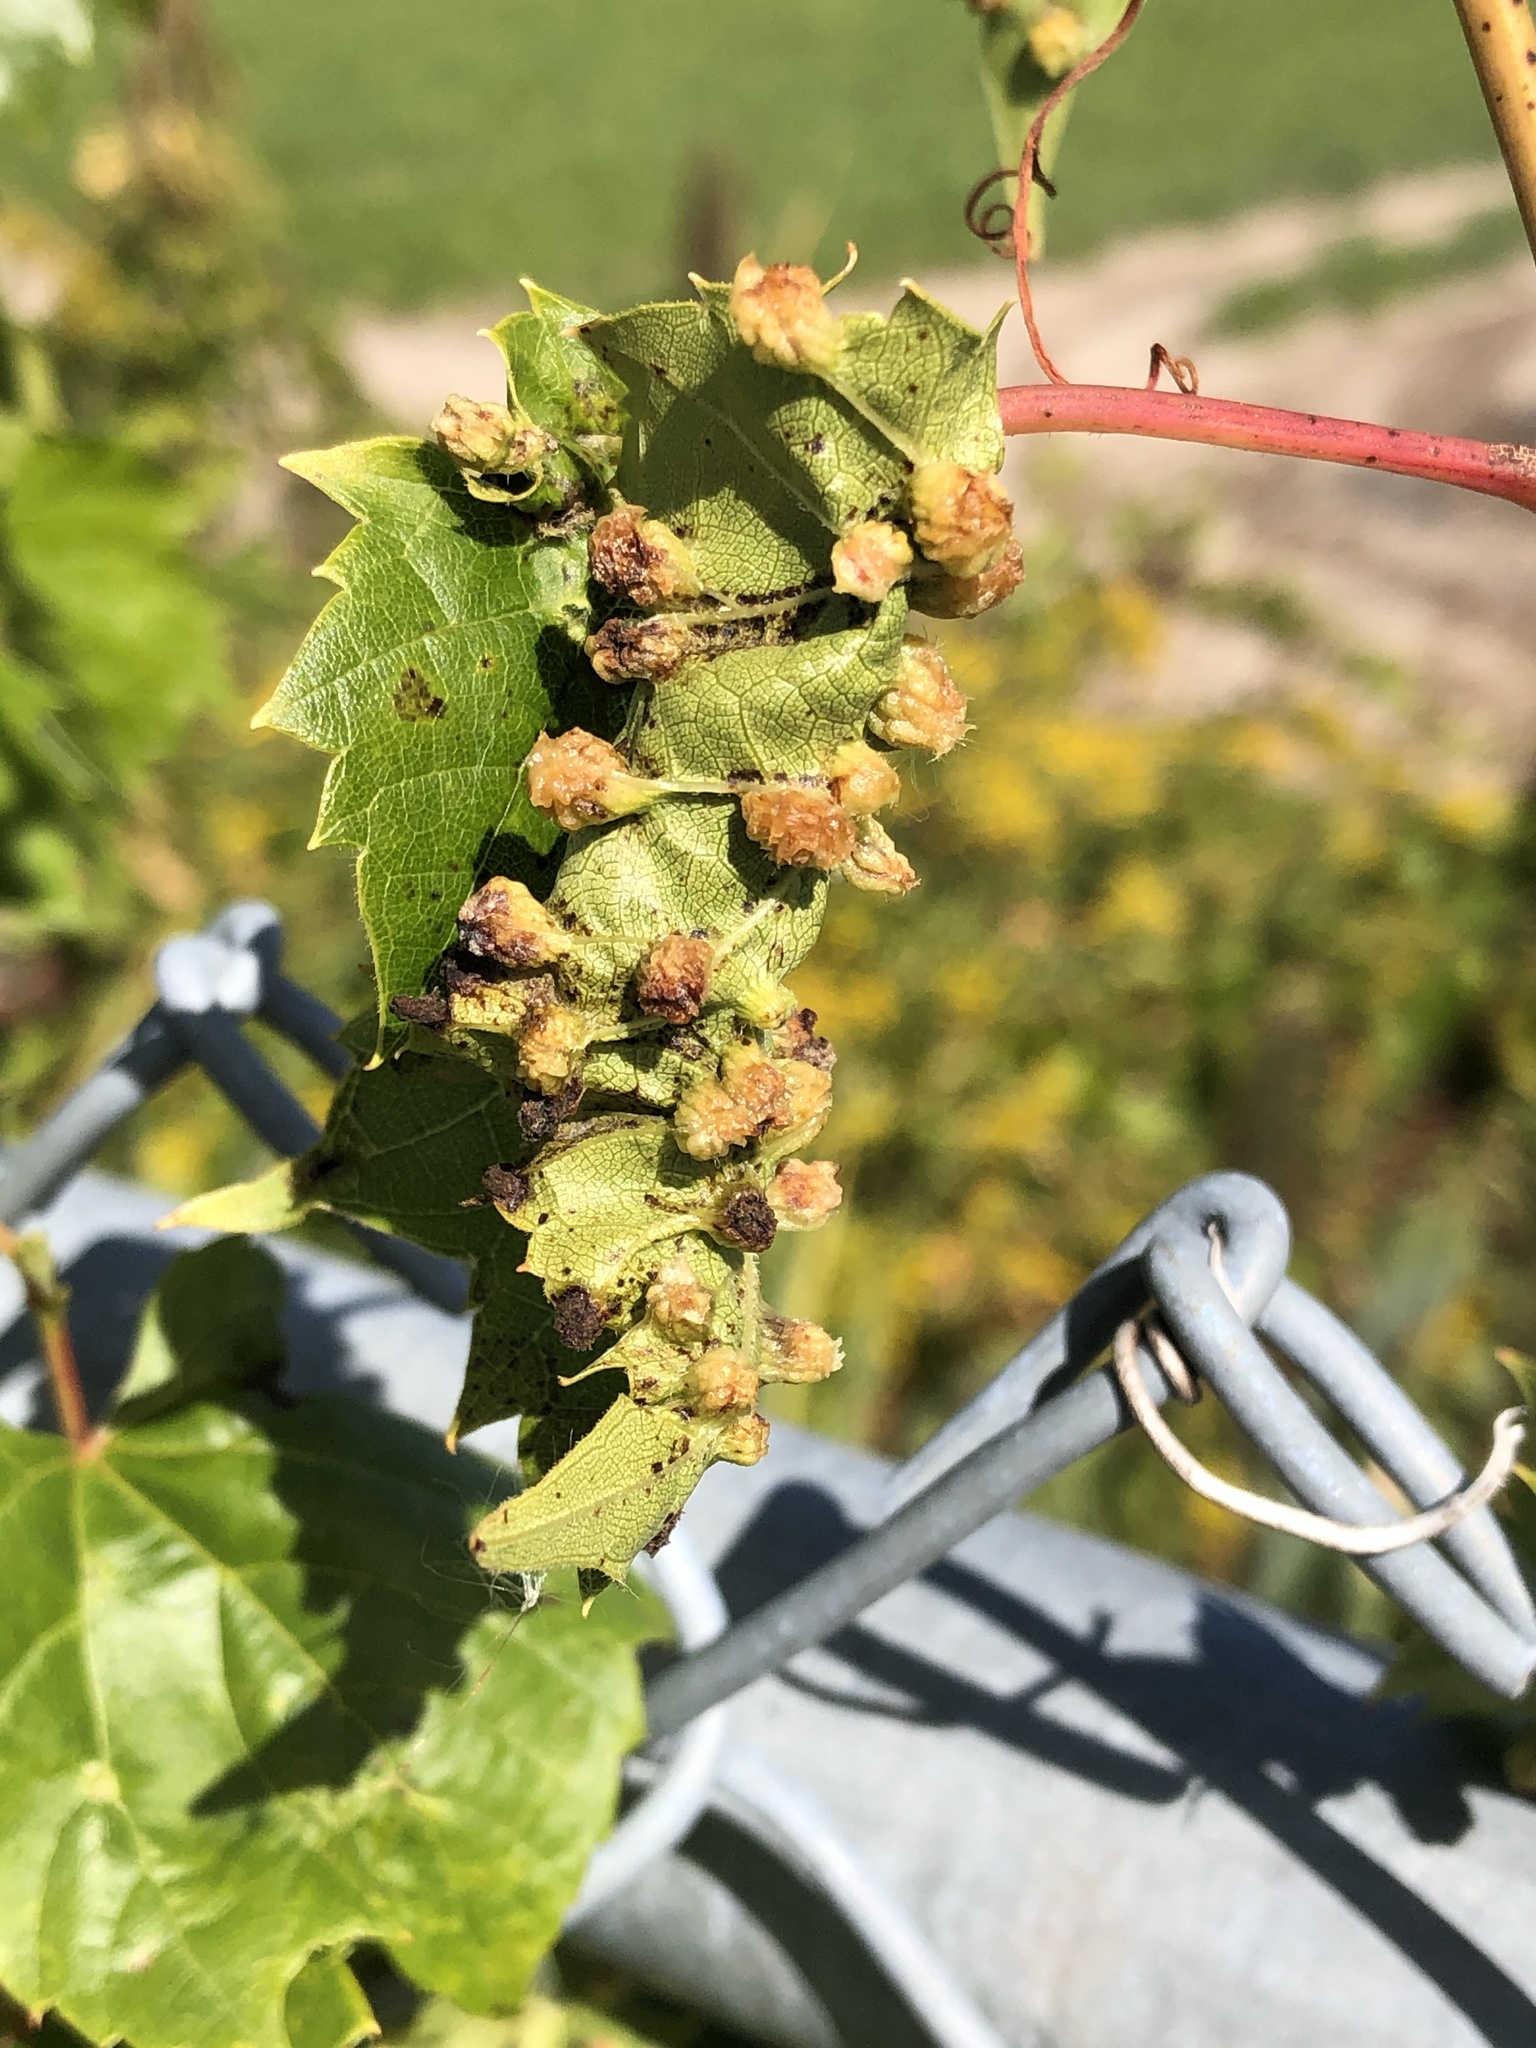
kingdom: Animalia
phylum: Arthropoda
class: Insecta
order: Hemiptera
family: Phylloxeridae
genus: Daktulosphaira
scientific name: Daktulosphaira vitifoliae
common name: Grape phylloxera
